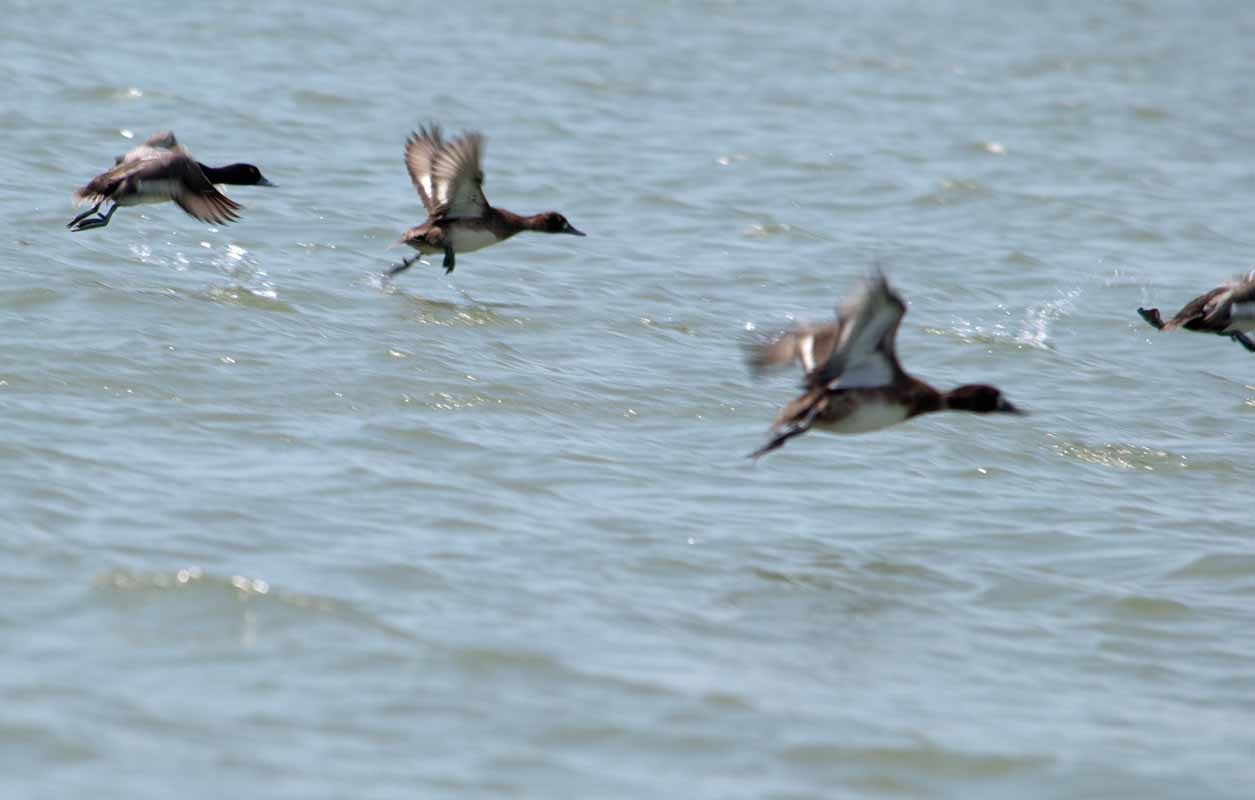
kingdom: Animalia
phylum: Chordata
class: Aves
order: Anseriformes
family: Anatidae
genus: Aythya
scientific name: Aythya affinis
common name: Lesser scaup
